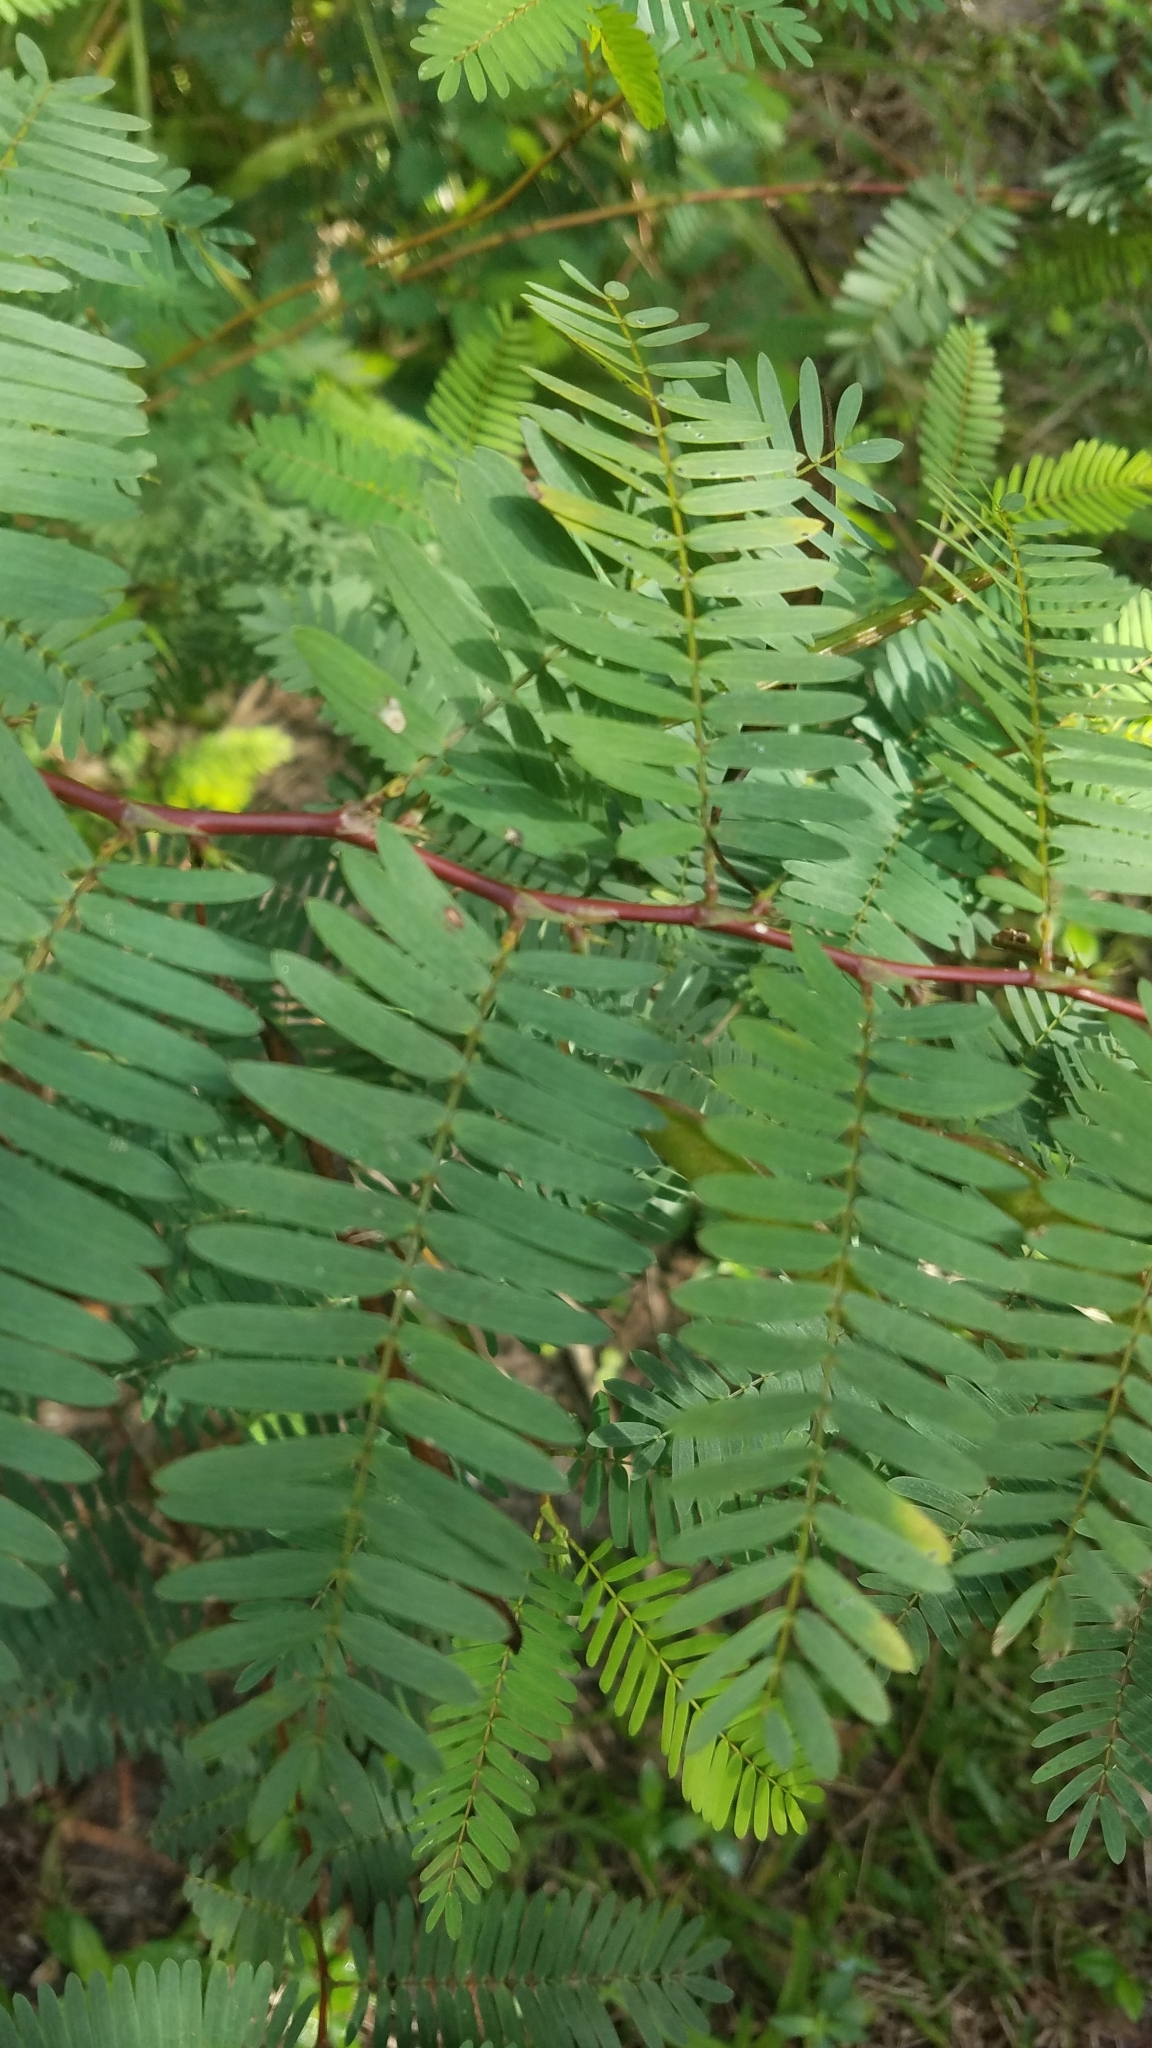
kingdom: Plantae
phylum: Tracheophyta
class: Magnoliopsida
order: Fabales
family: Fabaceae
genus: Chamaecrista
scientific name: Chamaecrista fasciculata
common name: Golden cassia
